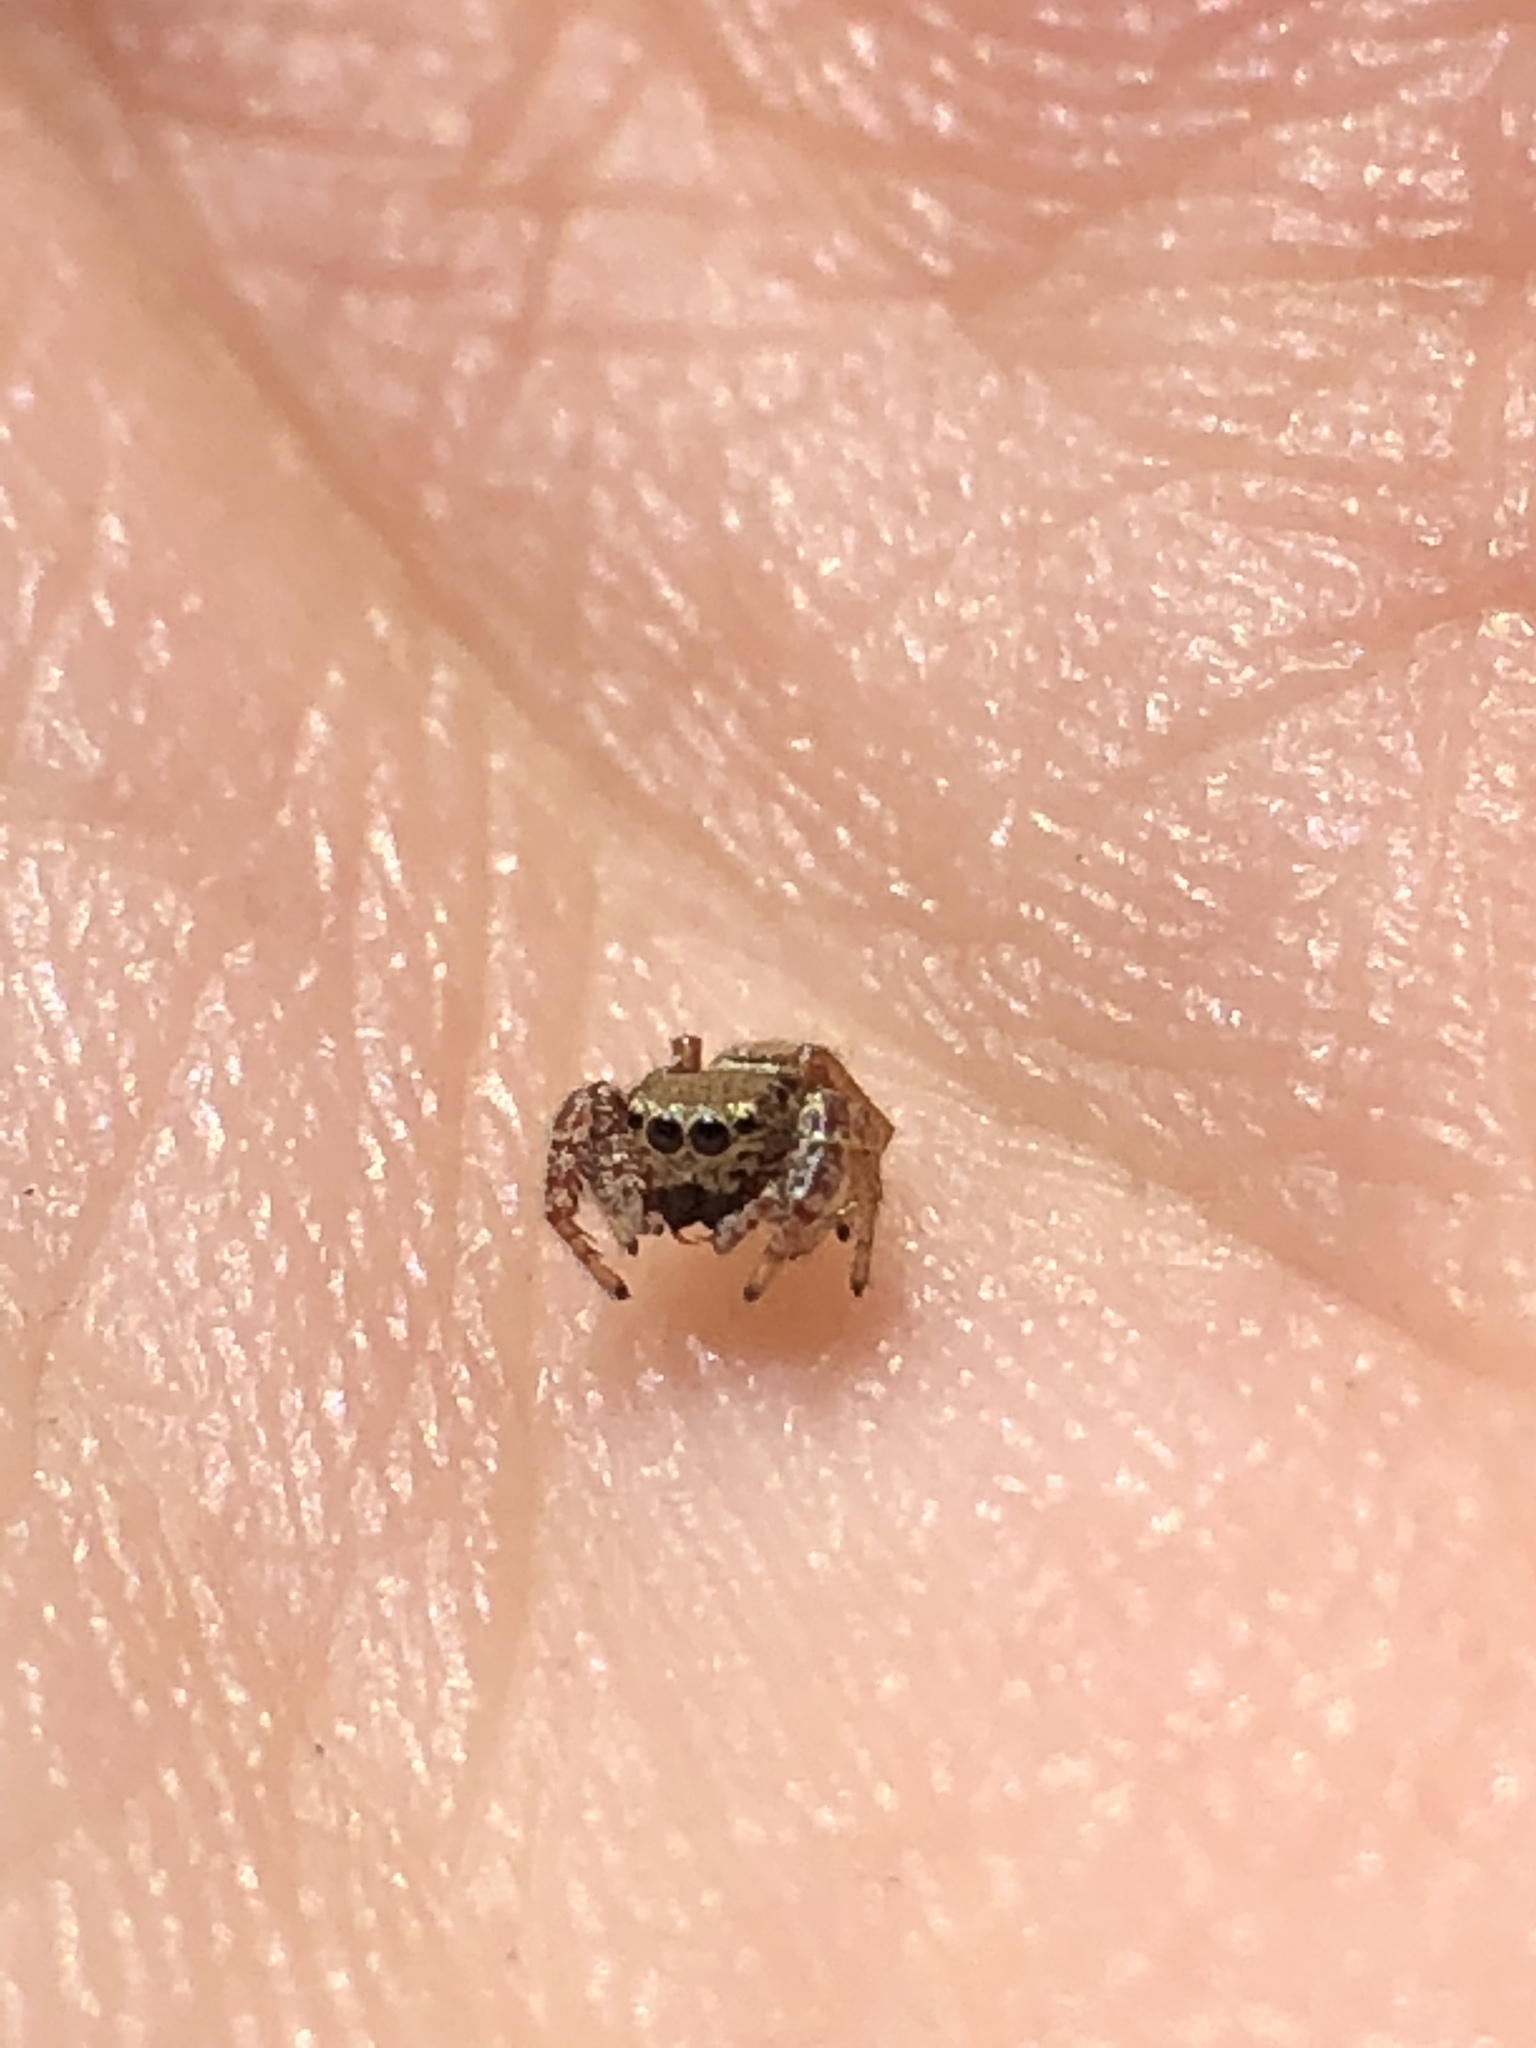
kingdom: Animalia
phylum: Arthropoda
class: Arachnida
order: Araneae
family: Salticidae
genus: Sassacus
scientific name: Sassacus vitis
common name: Jumping spiders
